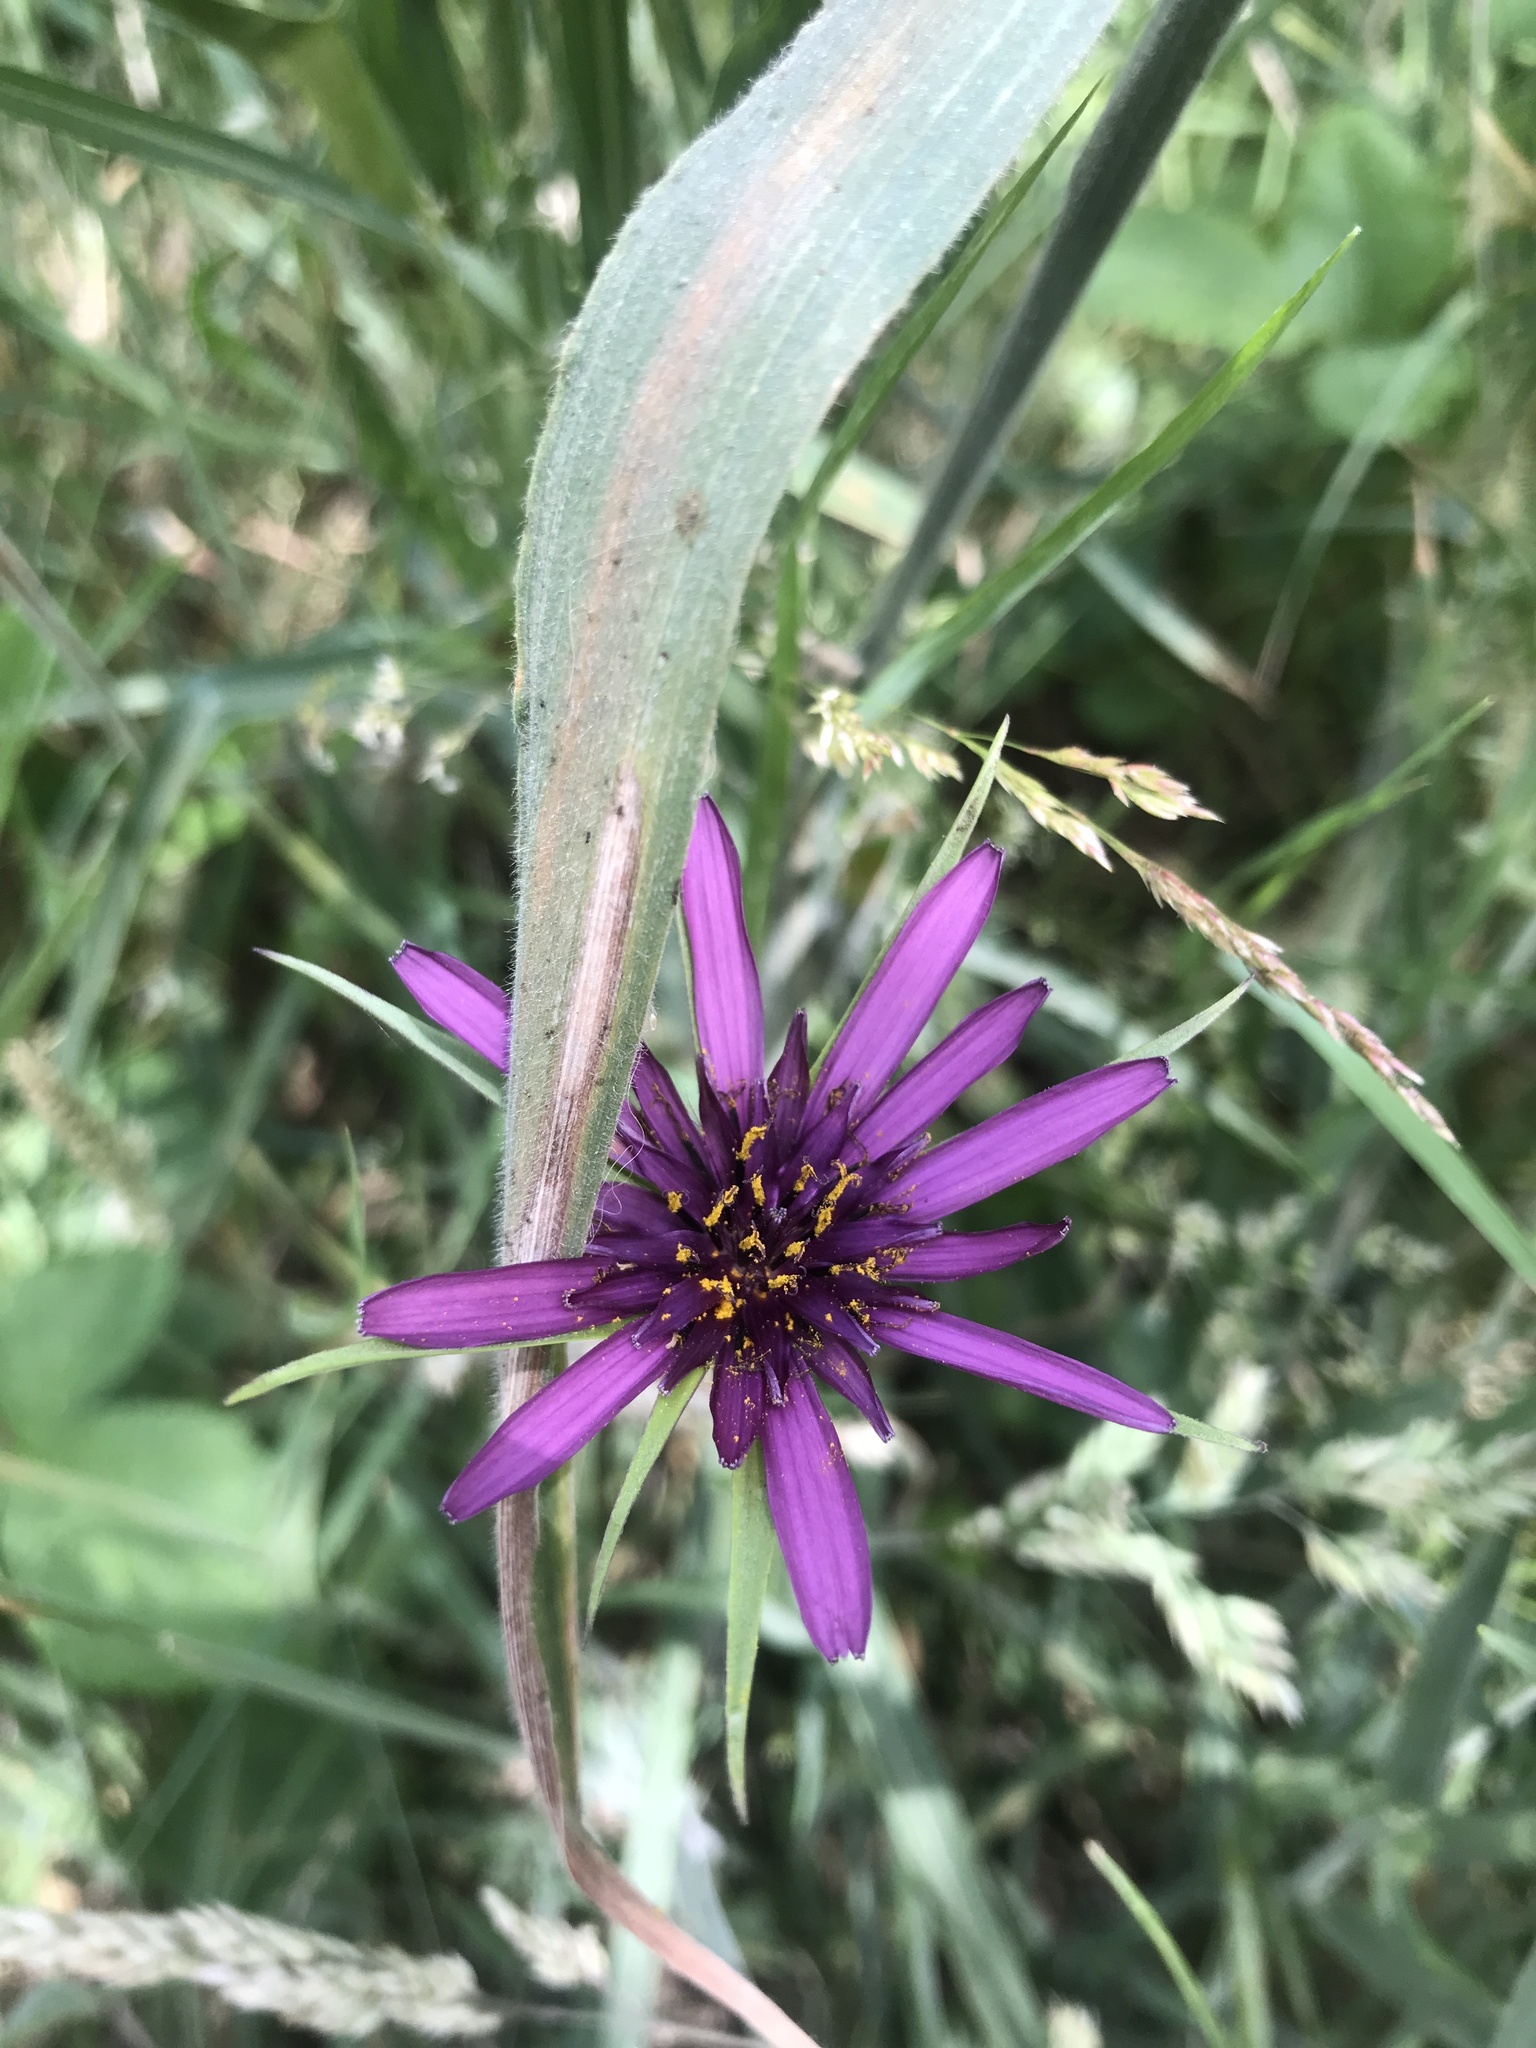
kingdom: Plantae
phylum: Tracheophyta
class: Magnoliopsida
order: Asterales
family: Asteraceae
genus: Tragopogon
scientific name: Tragopogon porrifolius
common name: Salsify
